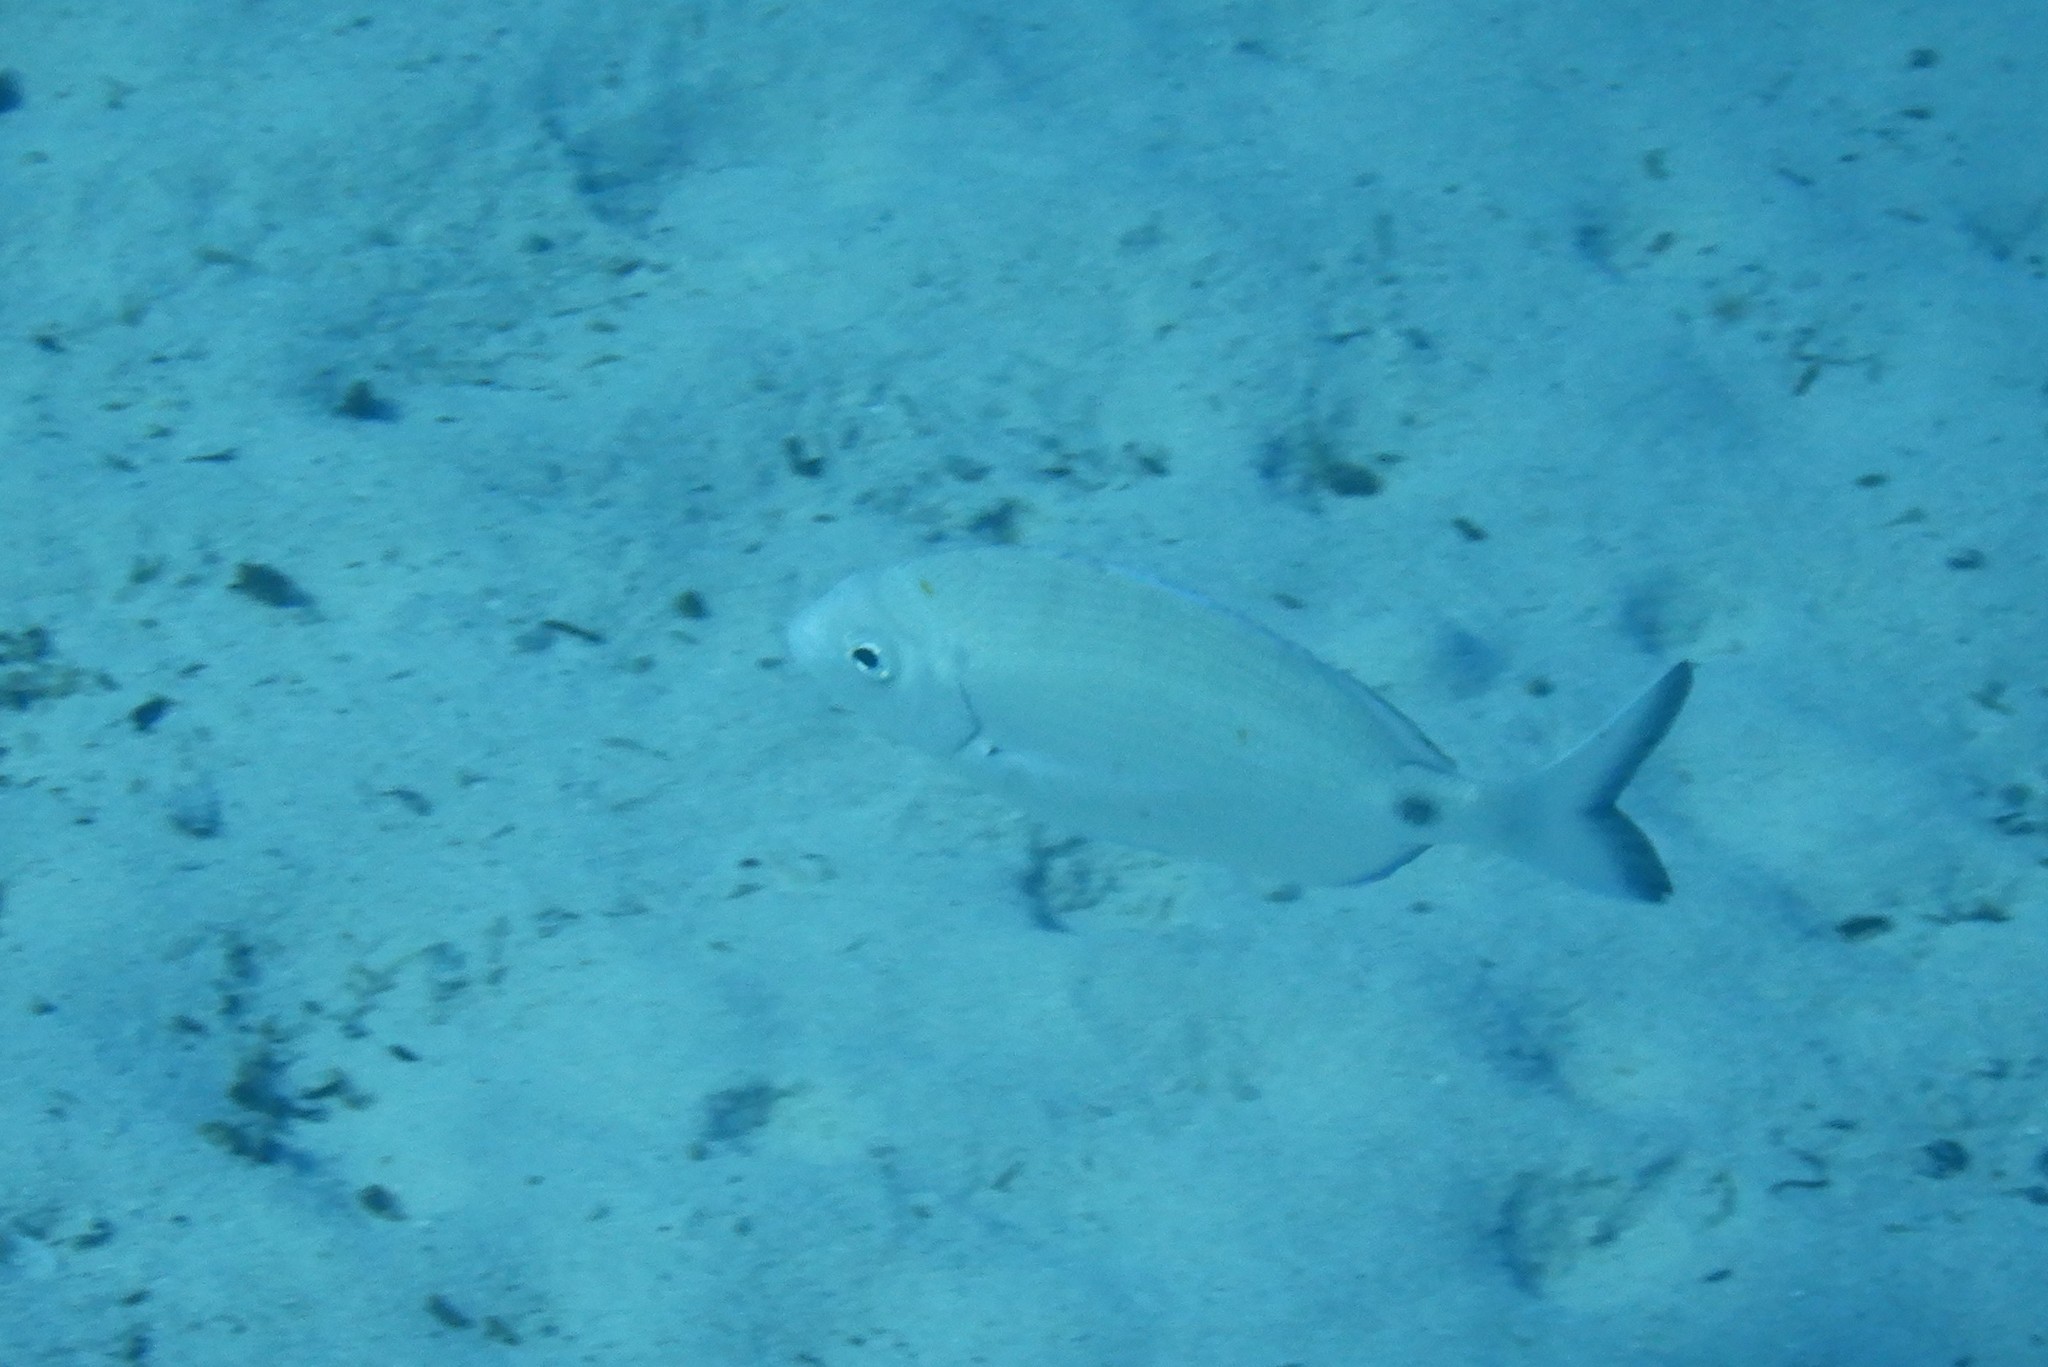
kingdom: Animalia
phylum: Chordata
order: Perciformes
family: Sparidae
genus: Diplodus
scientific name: Diplodus sargus
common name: White seabream
